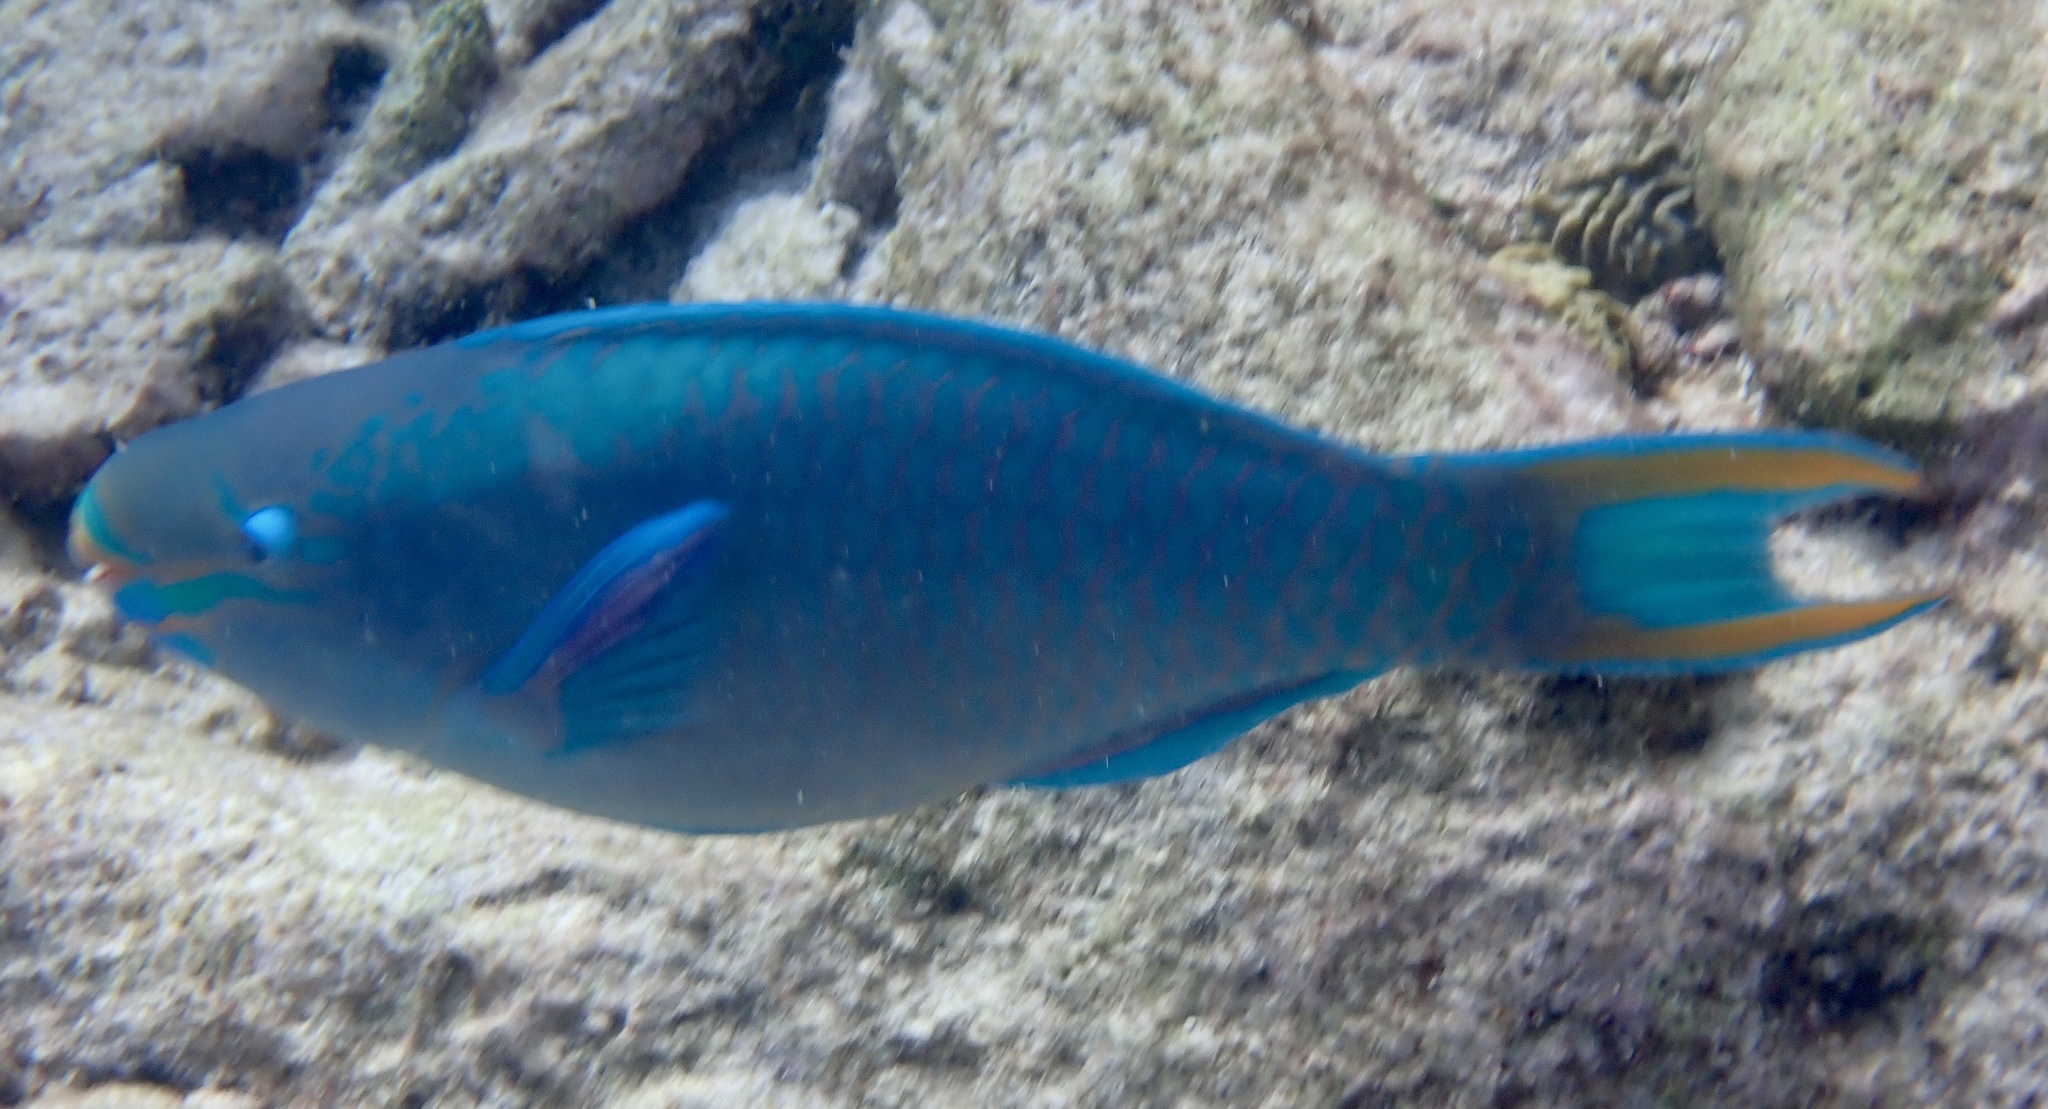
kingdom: Animalia
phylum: Chordata
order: Perciformes
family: Scaridae
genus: Scarus
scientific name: Scarus vetula
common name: Queen parrotfish
